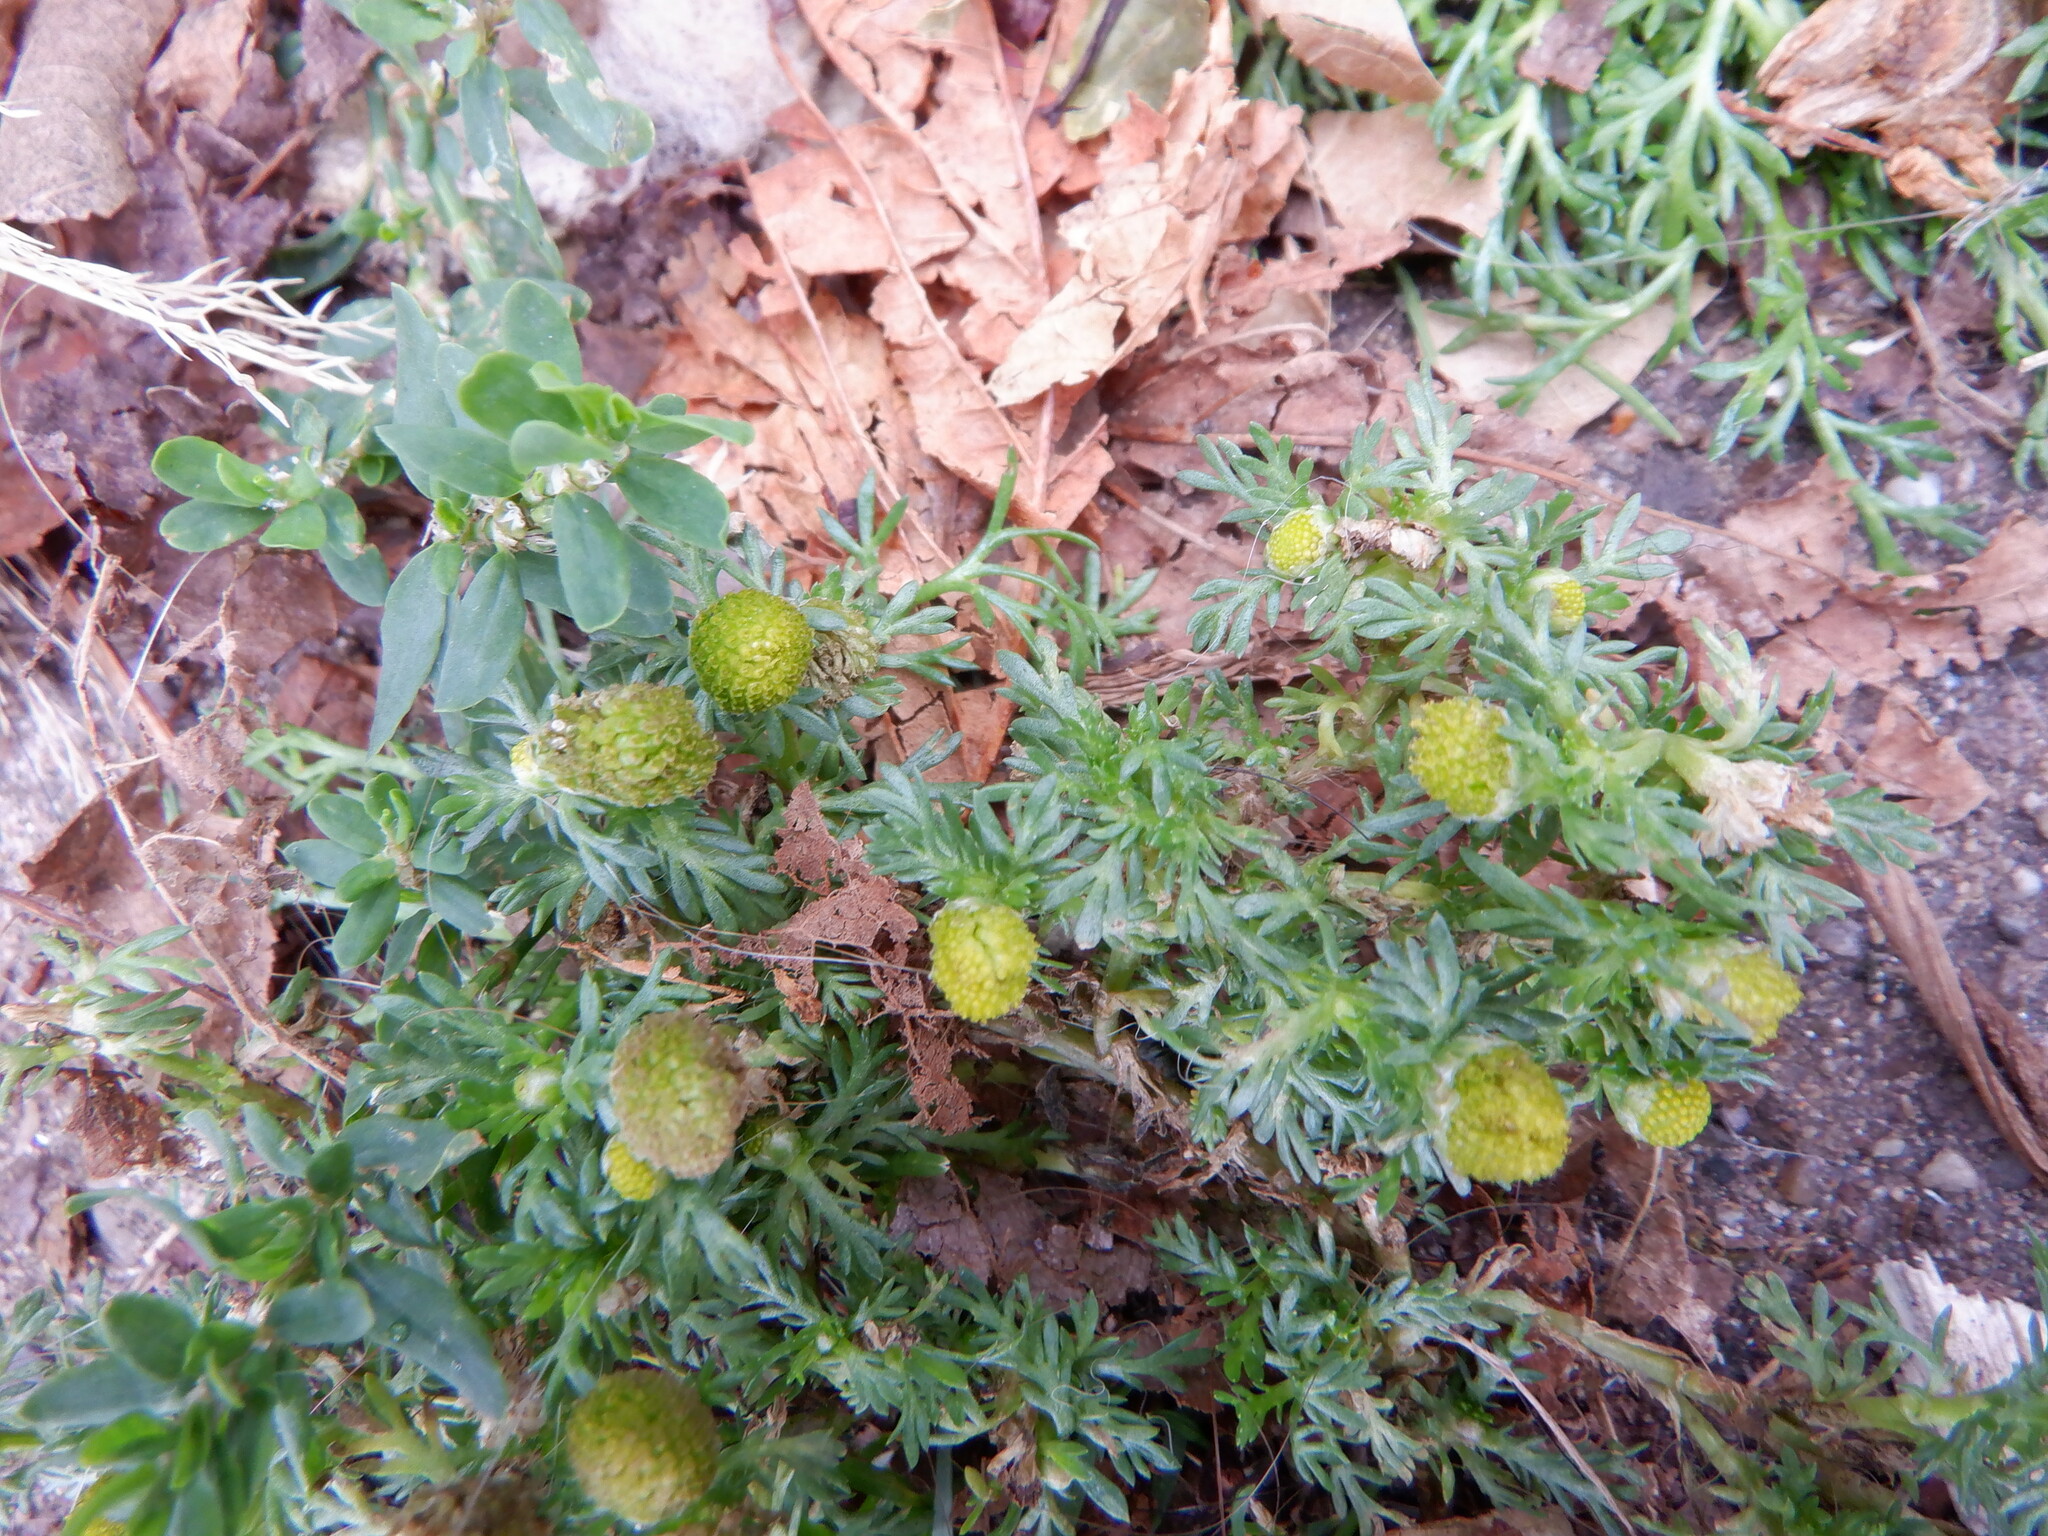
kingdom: Plantae
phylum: Tracheophyta
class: Magnoliopsida
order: Asterales
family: Asteraceae
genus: Matricaria
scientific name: Matricaria discoidea
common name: Disc mayweed
